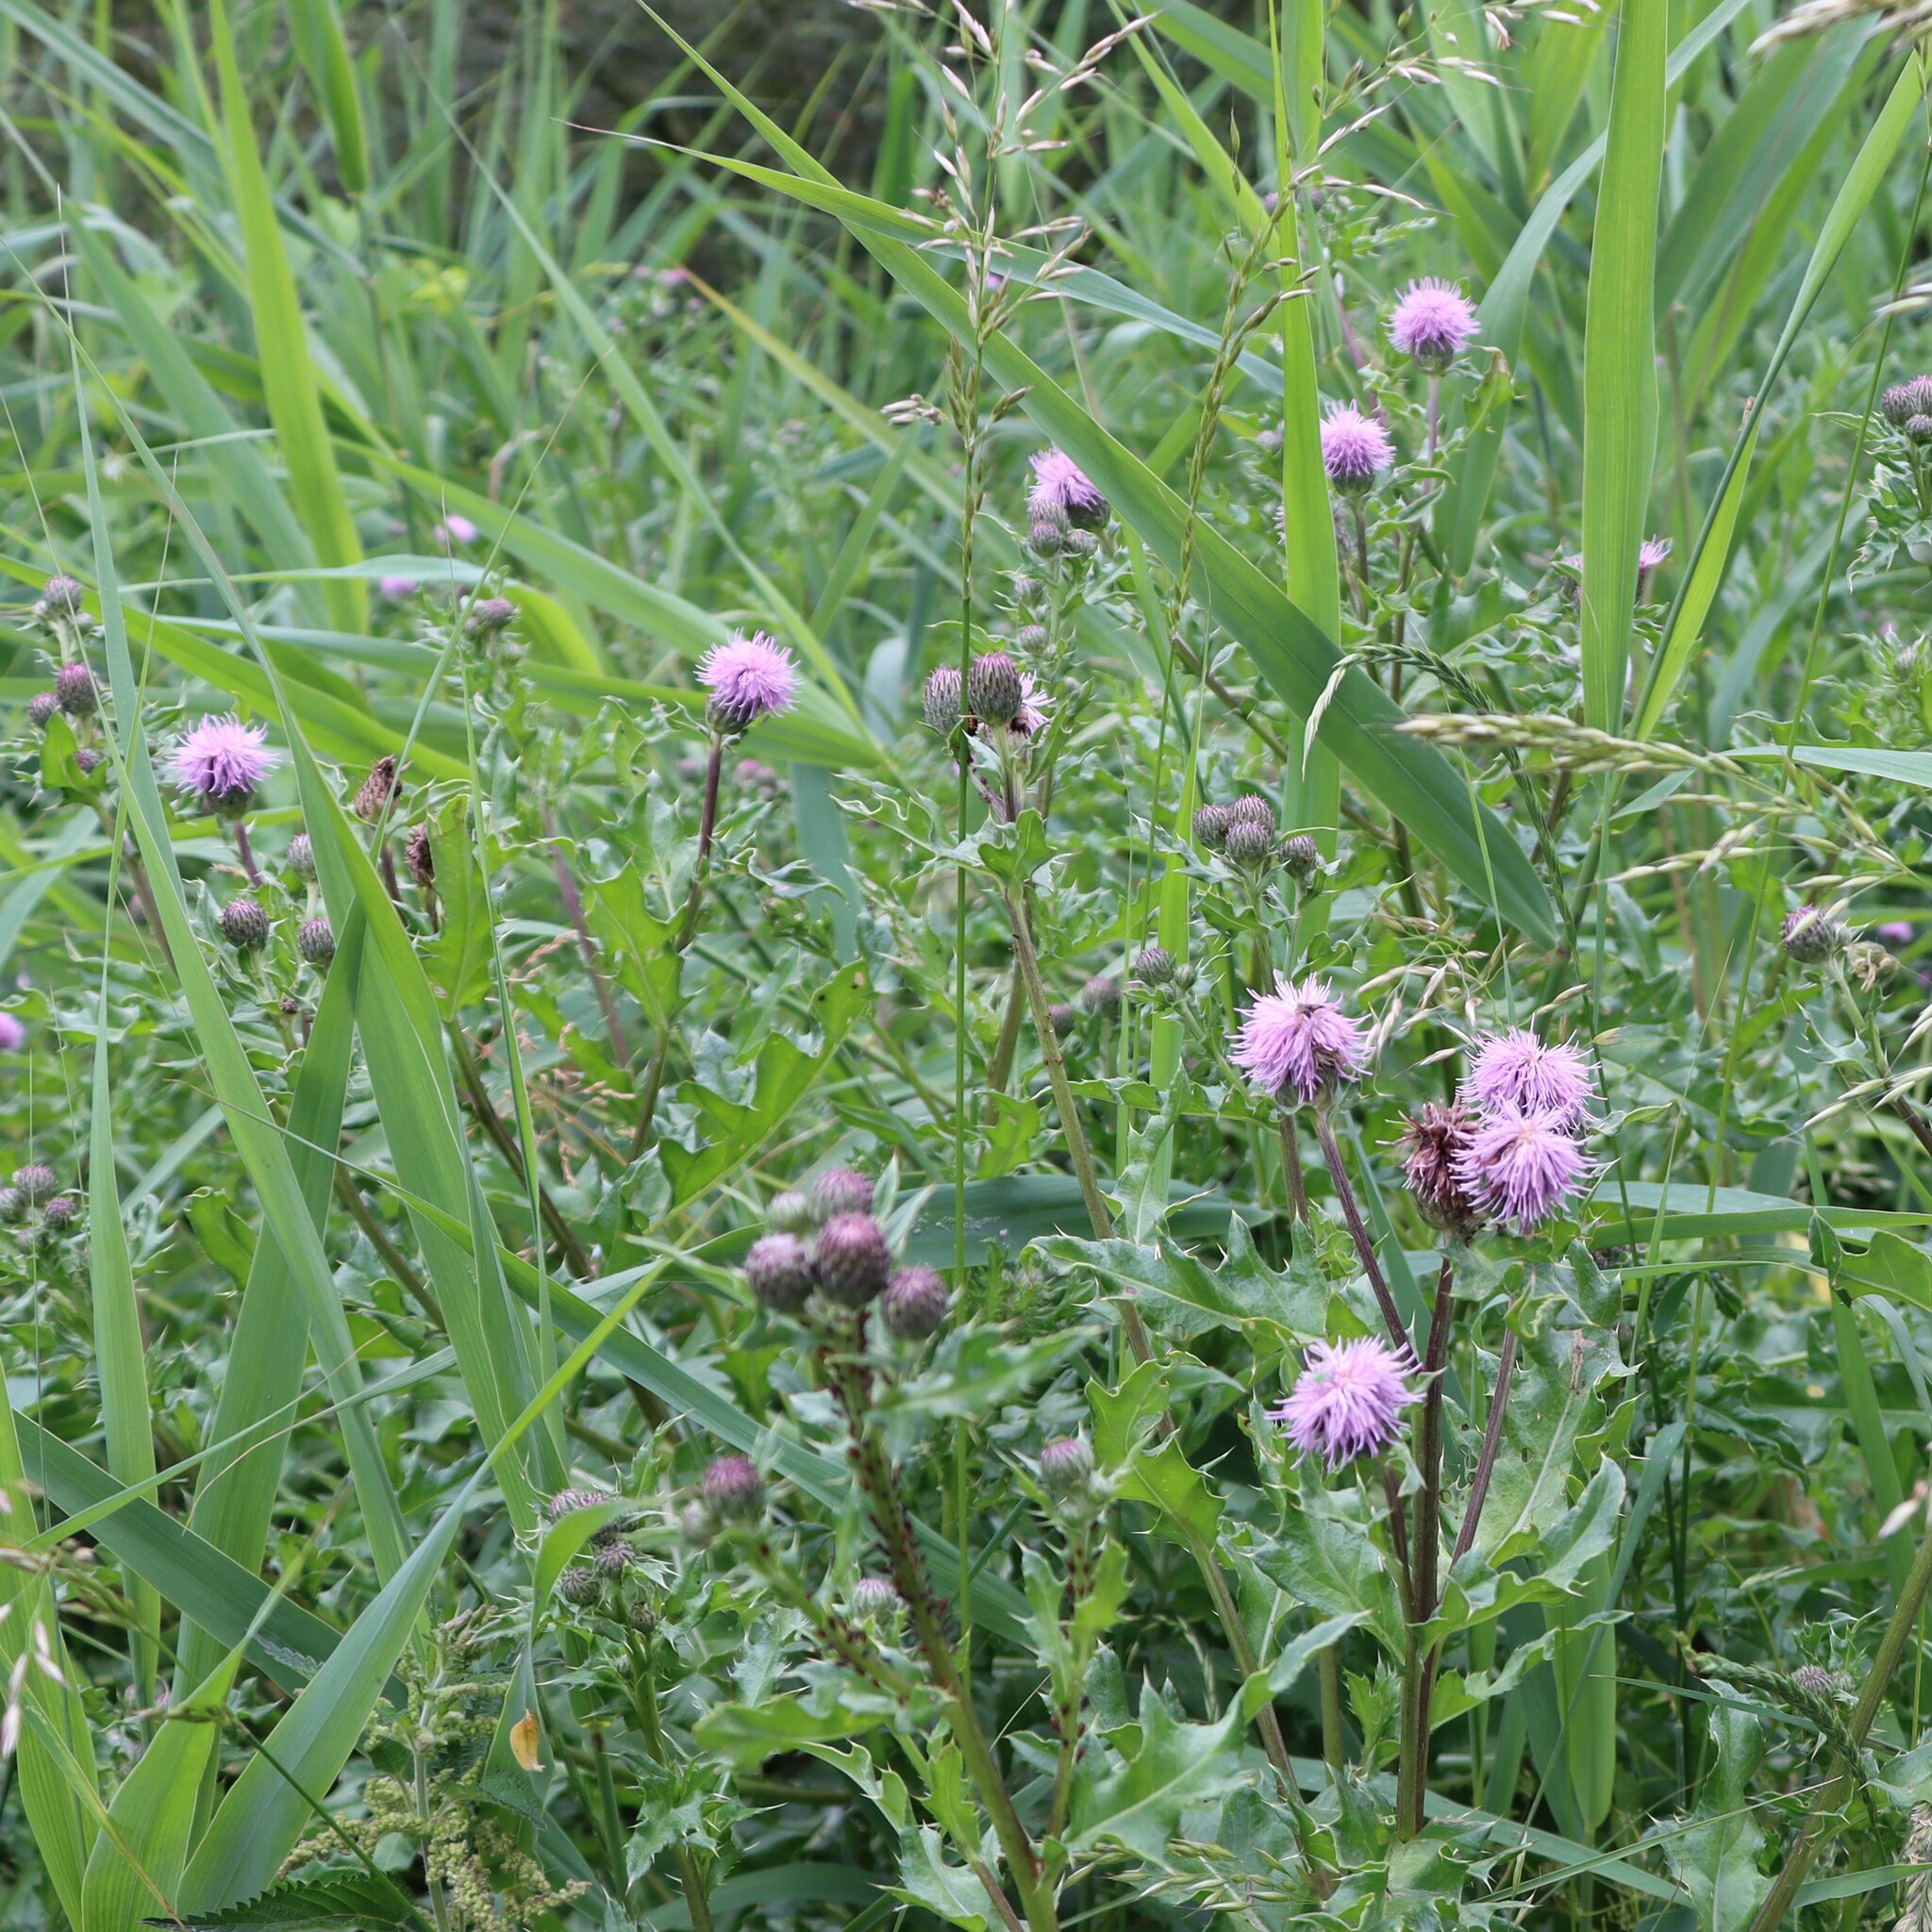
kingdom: Plantae
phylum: Tracheophyta
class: Magnoliopsida
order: Asterales
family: Asteraceae
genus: Cirsium
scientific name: Cirsium arvense
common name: Creeping thistle
